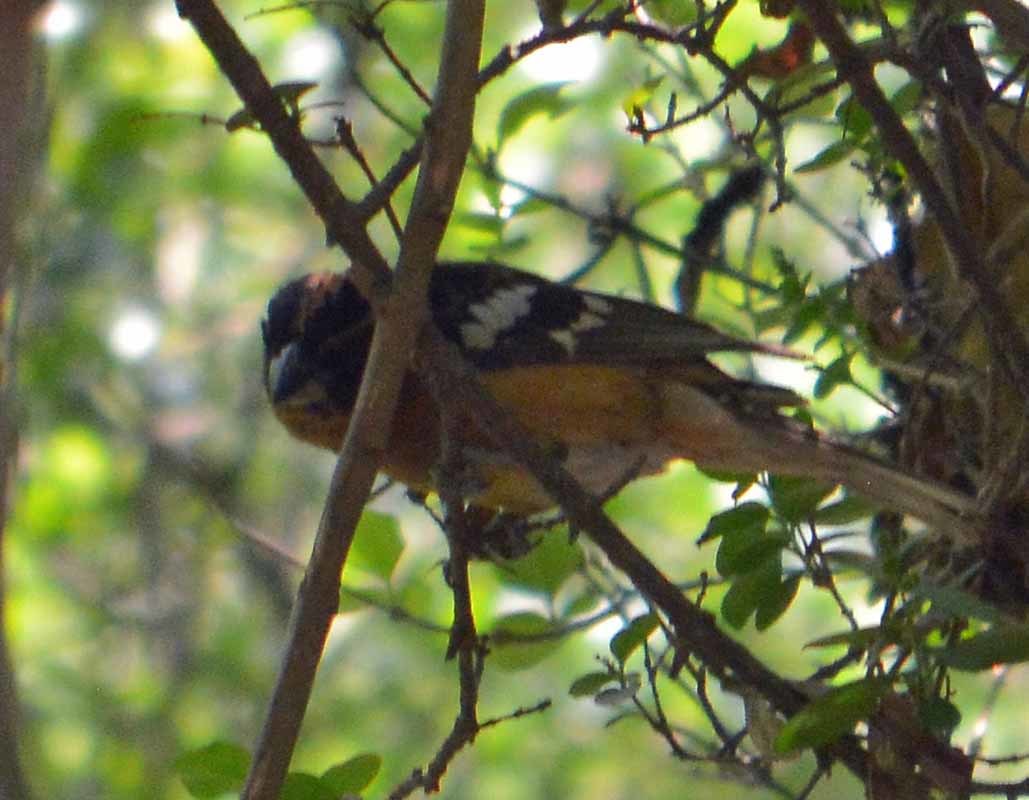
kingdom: Animalia
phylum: Chordata
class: Aves
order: Passeriformes
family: Cardinalidae
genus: Pheucticus
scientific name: Pheucticus melanocephalus
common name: Black-headed grosbeak
